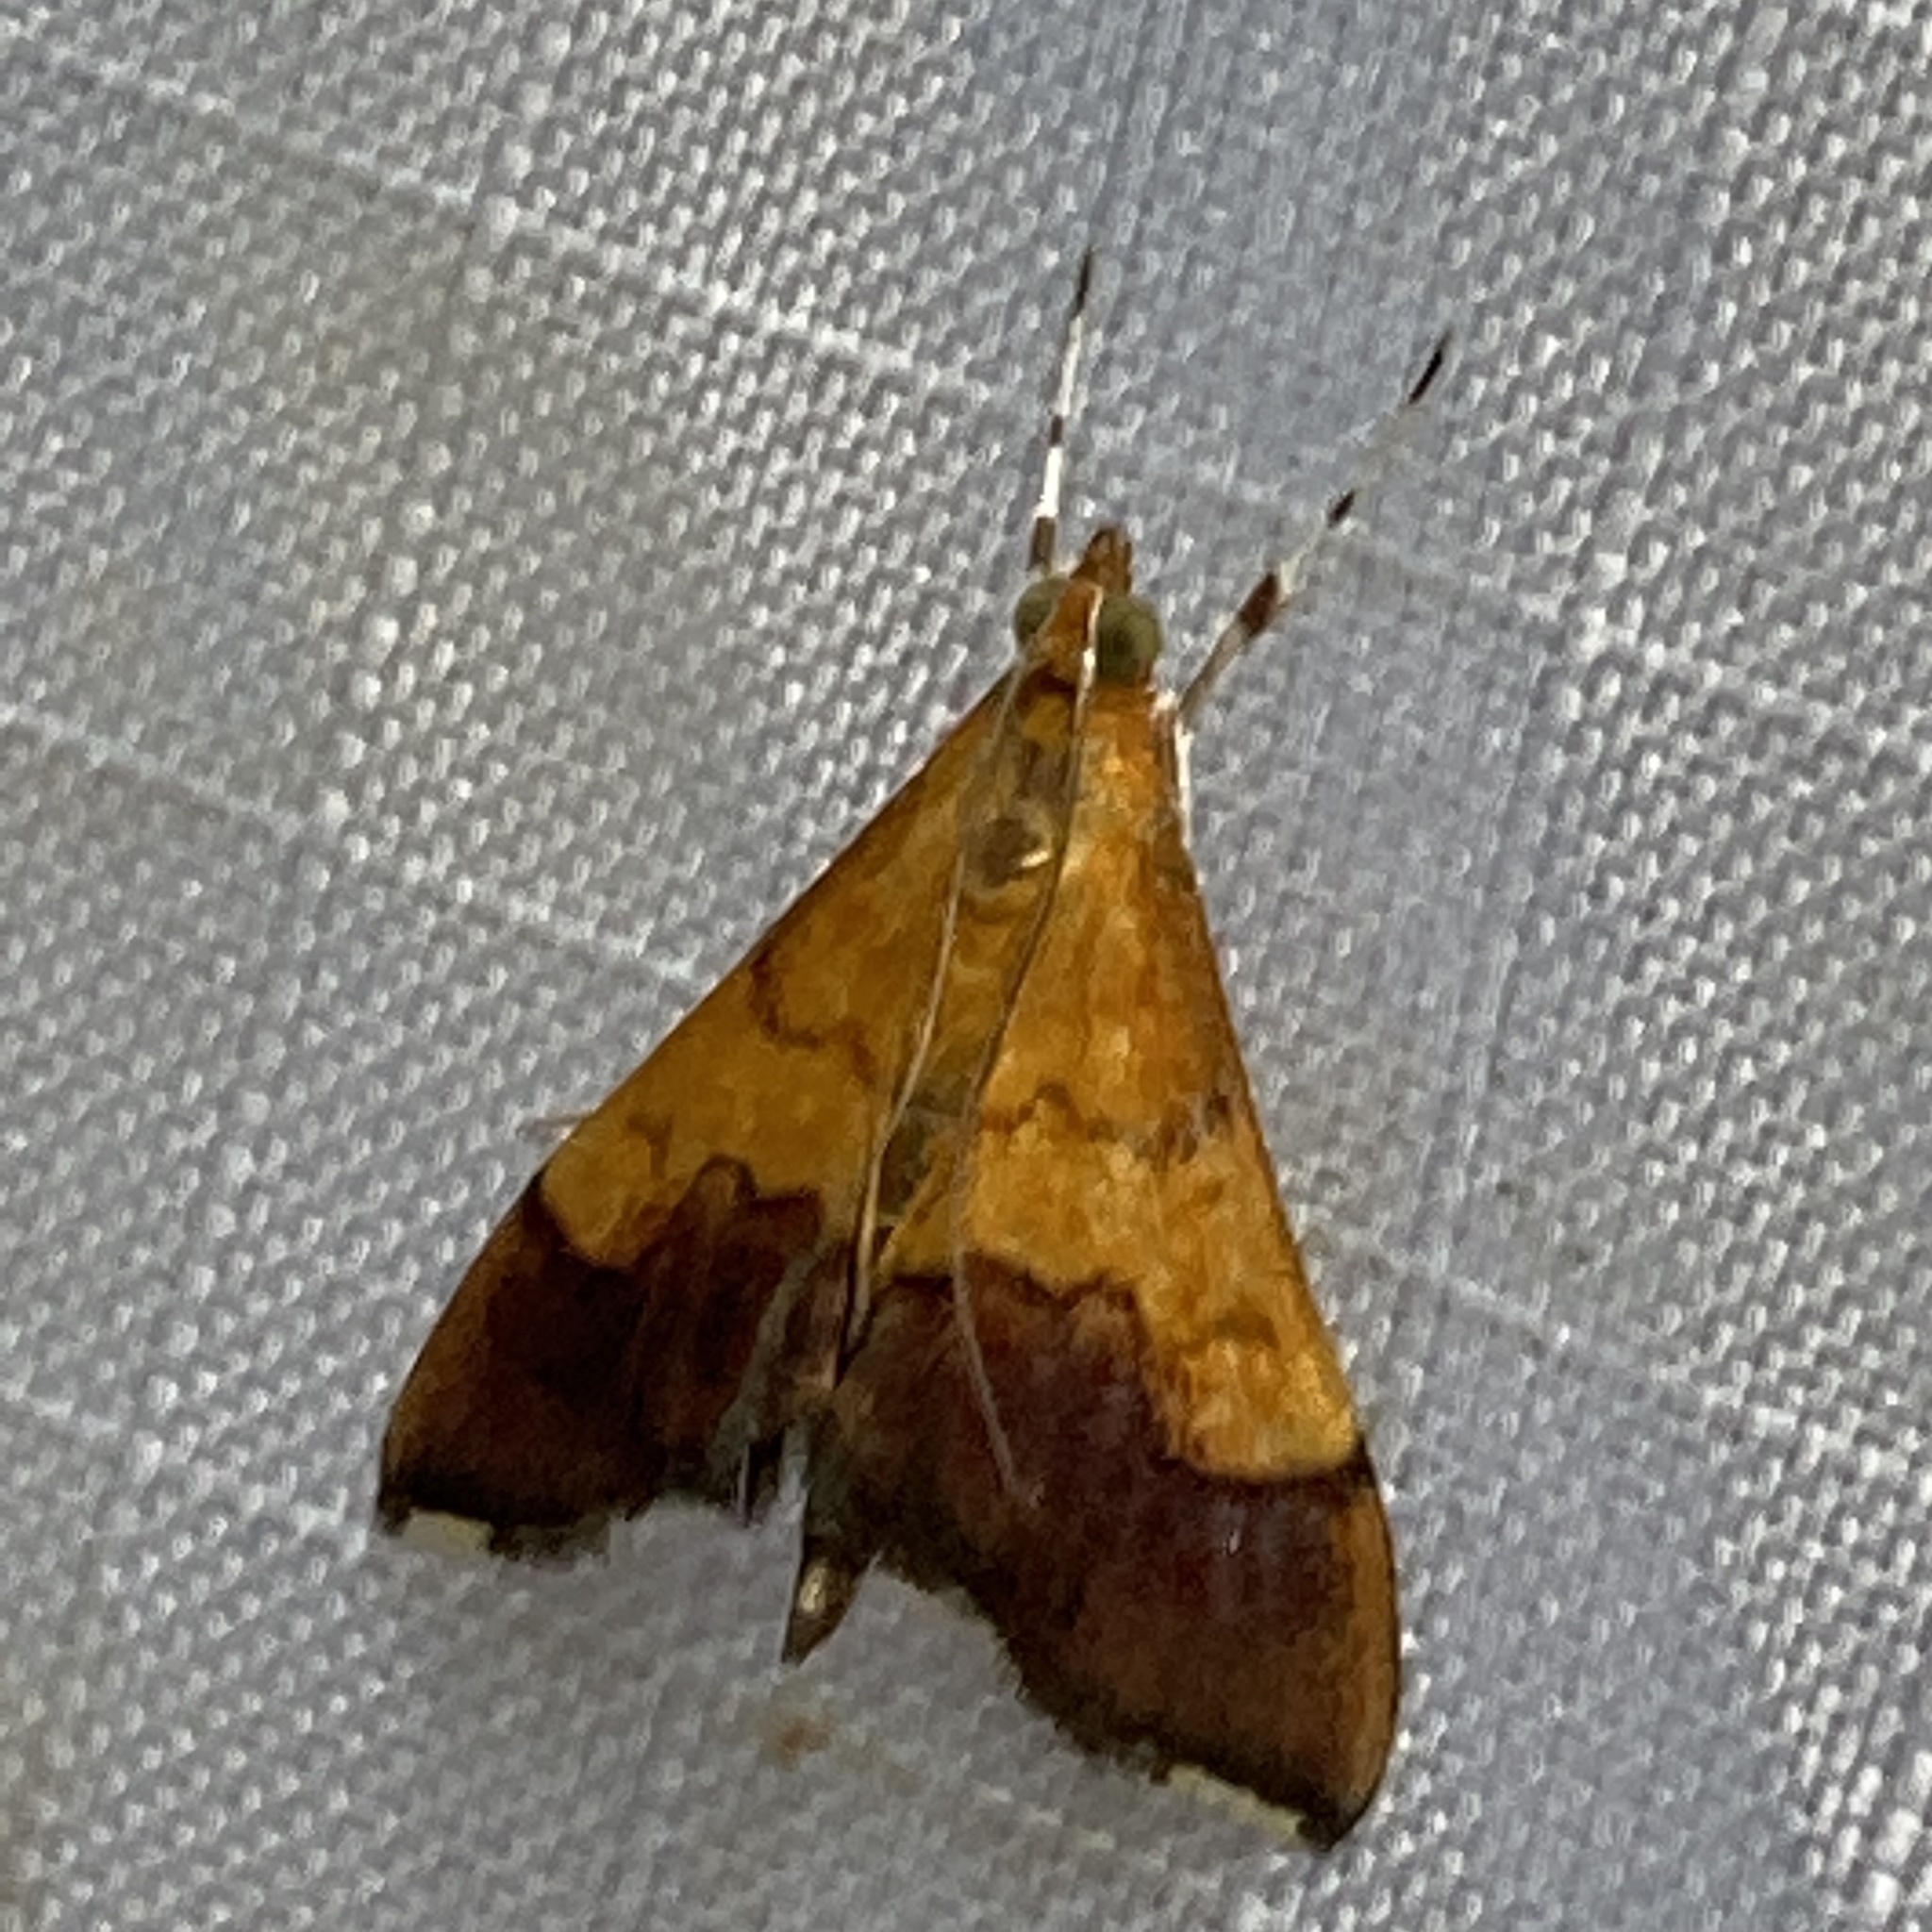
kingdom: Animalia
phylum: Arthropoda
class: Insecta
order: Lepidoptera
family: Crambidae
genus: Pyrausta
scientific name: Pyrausta bicoloralis
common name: Bicolored pyrausta moth
